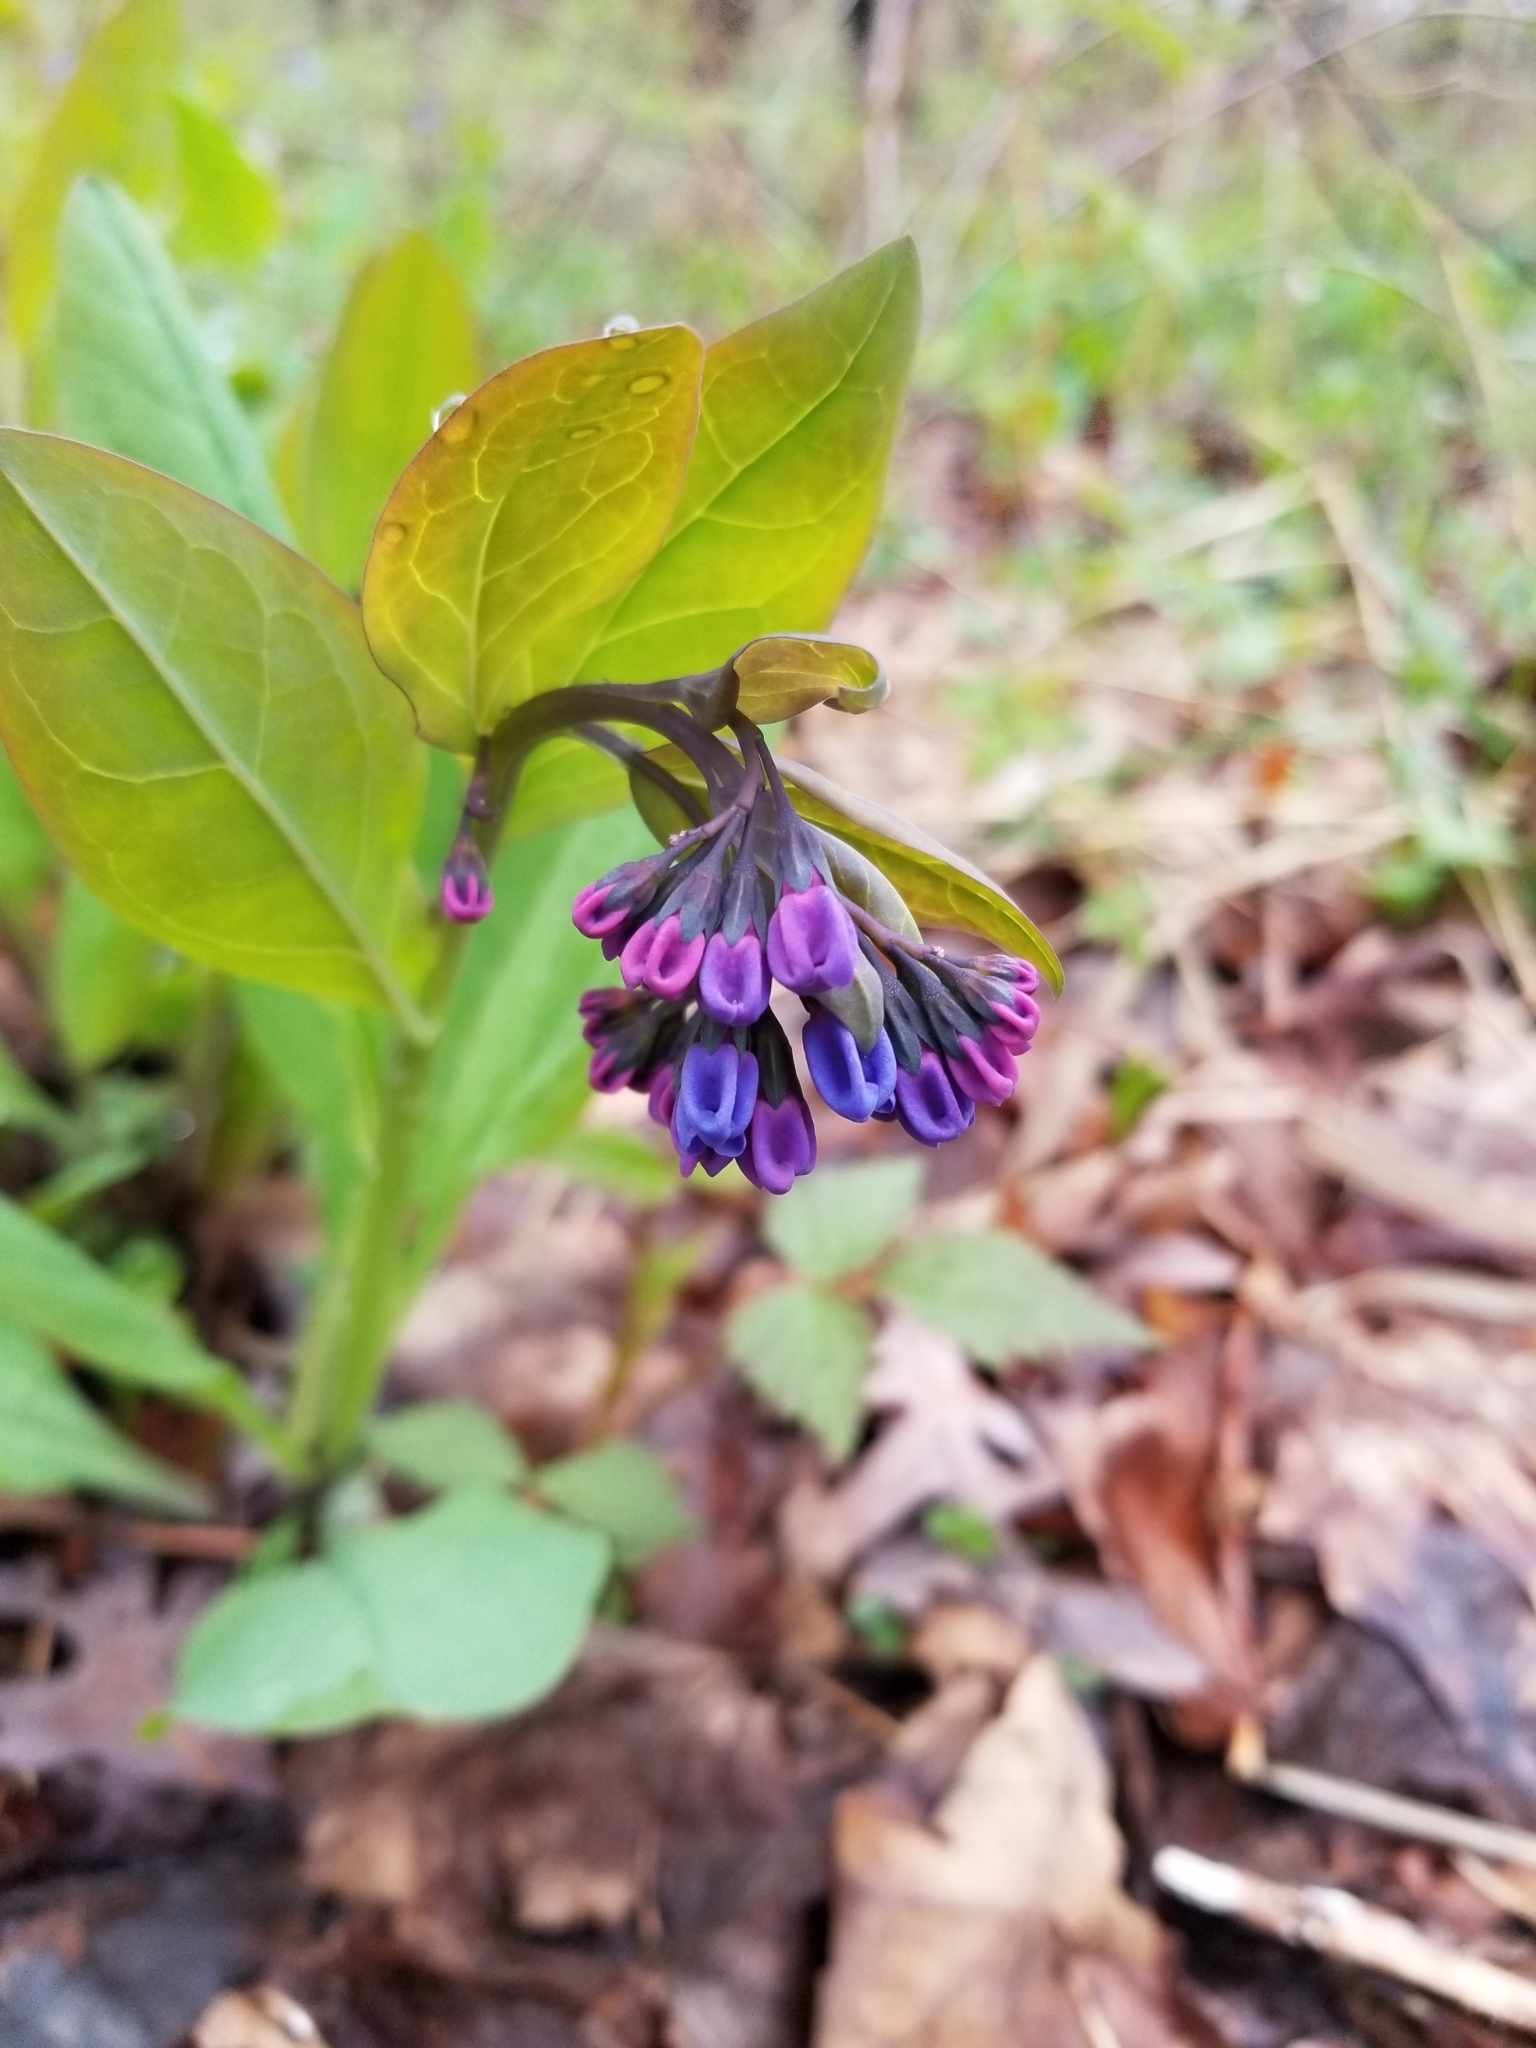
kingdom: Plantae
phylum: Tracheophyta
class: Magnoliopsida
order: Boraginales
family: Boraginaceae
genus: Mertensia
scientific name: Mertensia virginica
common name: Virginia bluebells
